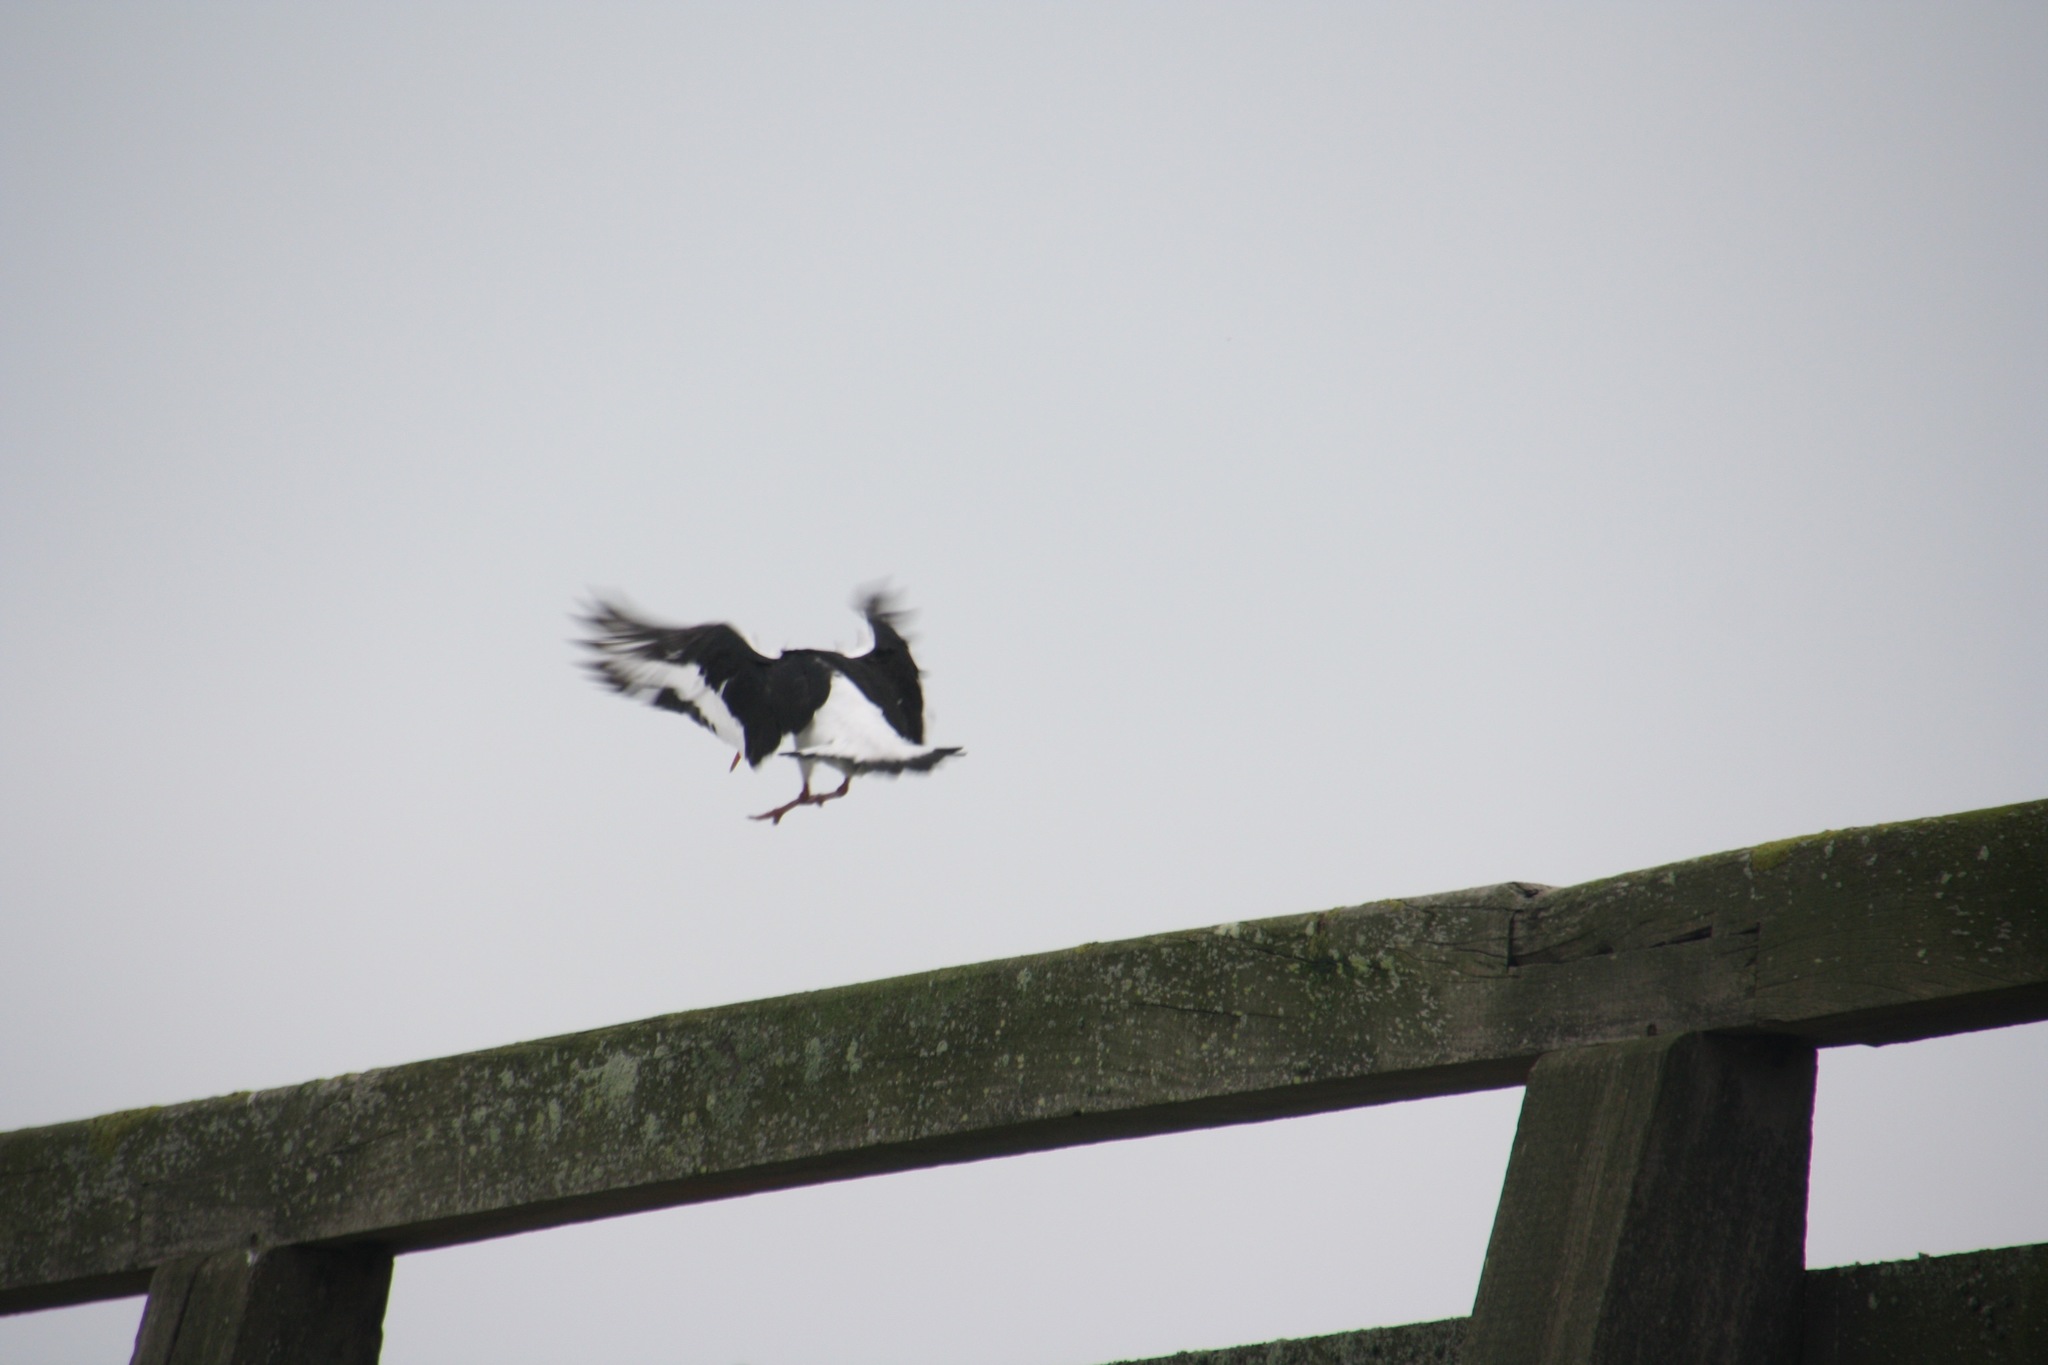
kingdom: Animalia
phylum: Chordata
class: Aves
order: Charadriiformes
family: Haematopodidae
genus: Haematopus
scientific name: Haematopus ostralegus
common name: Eurasian oystercatcher
